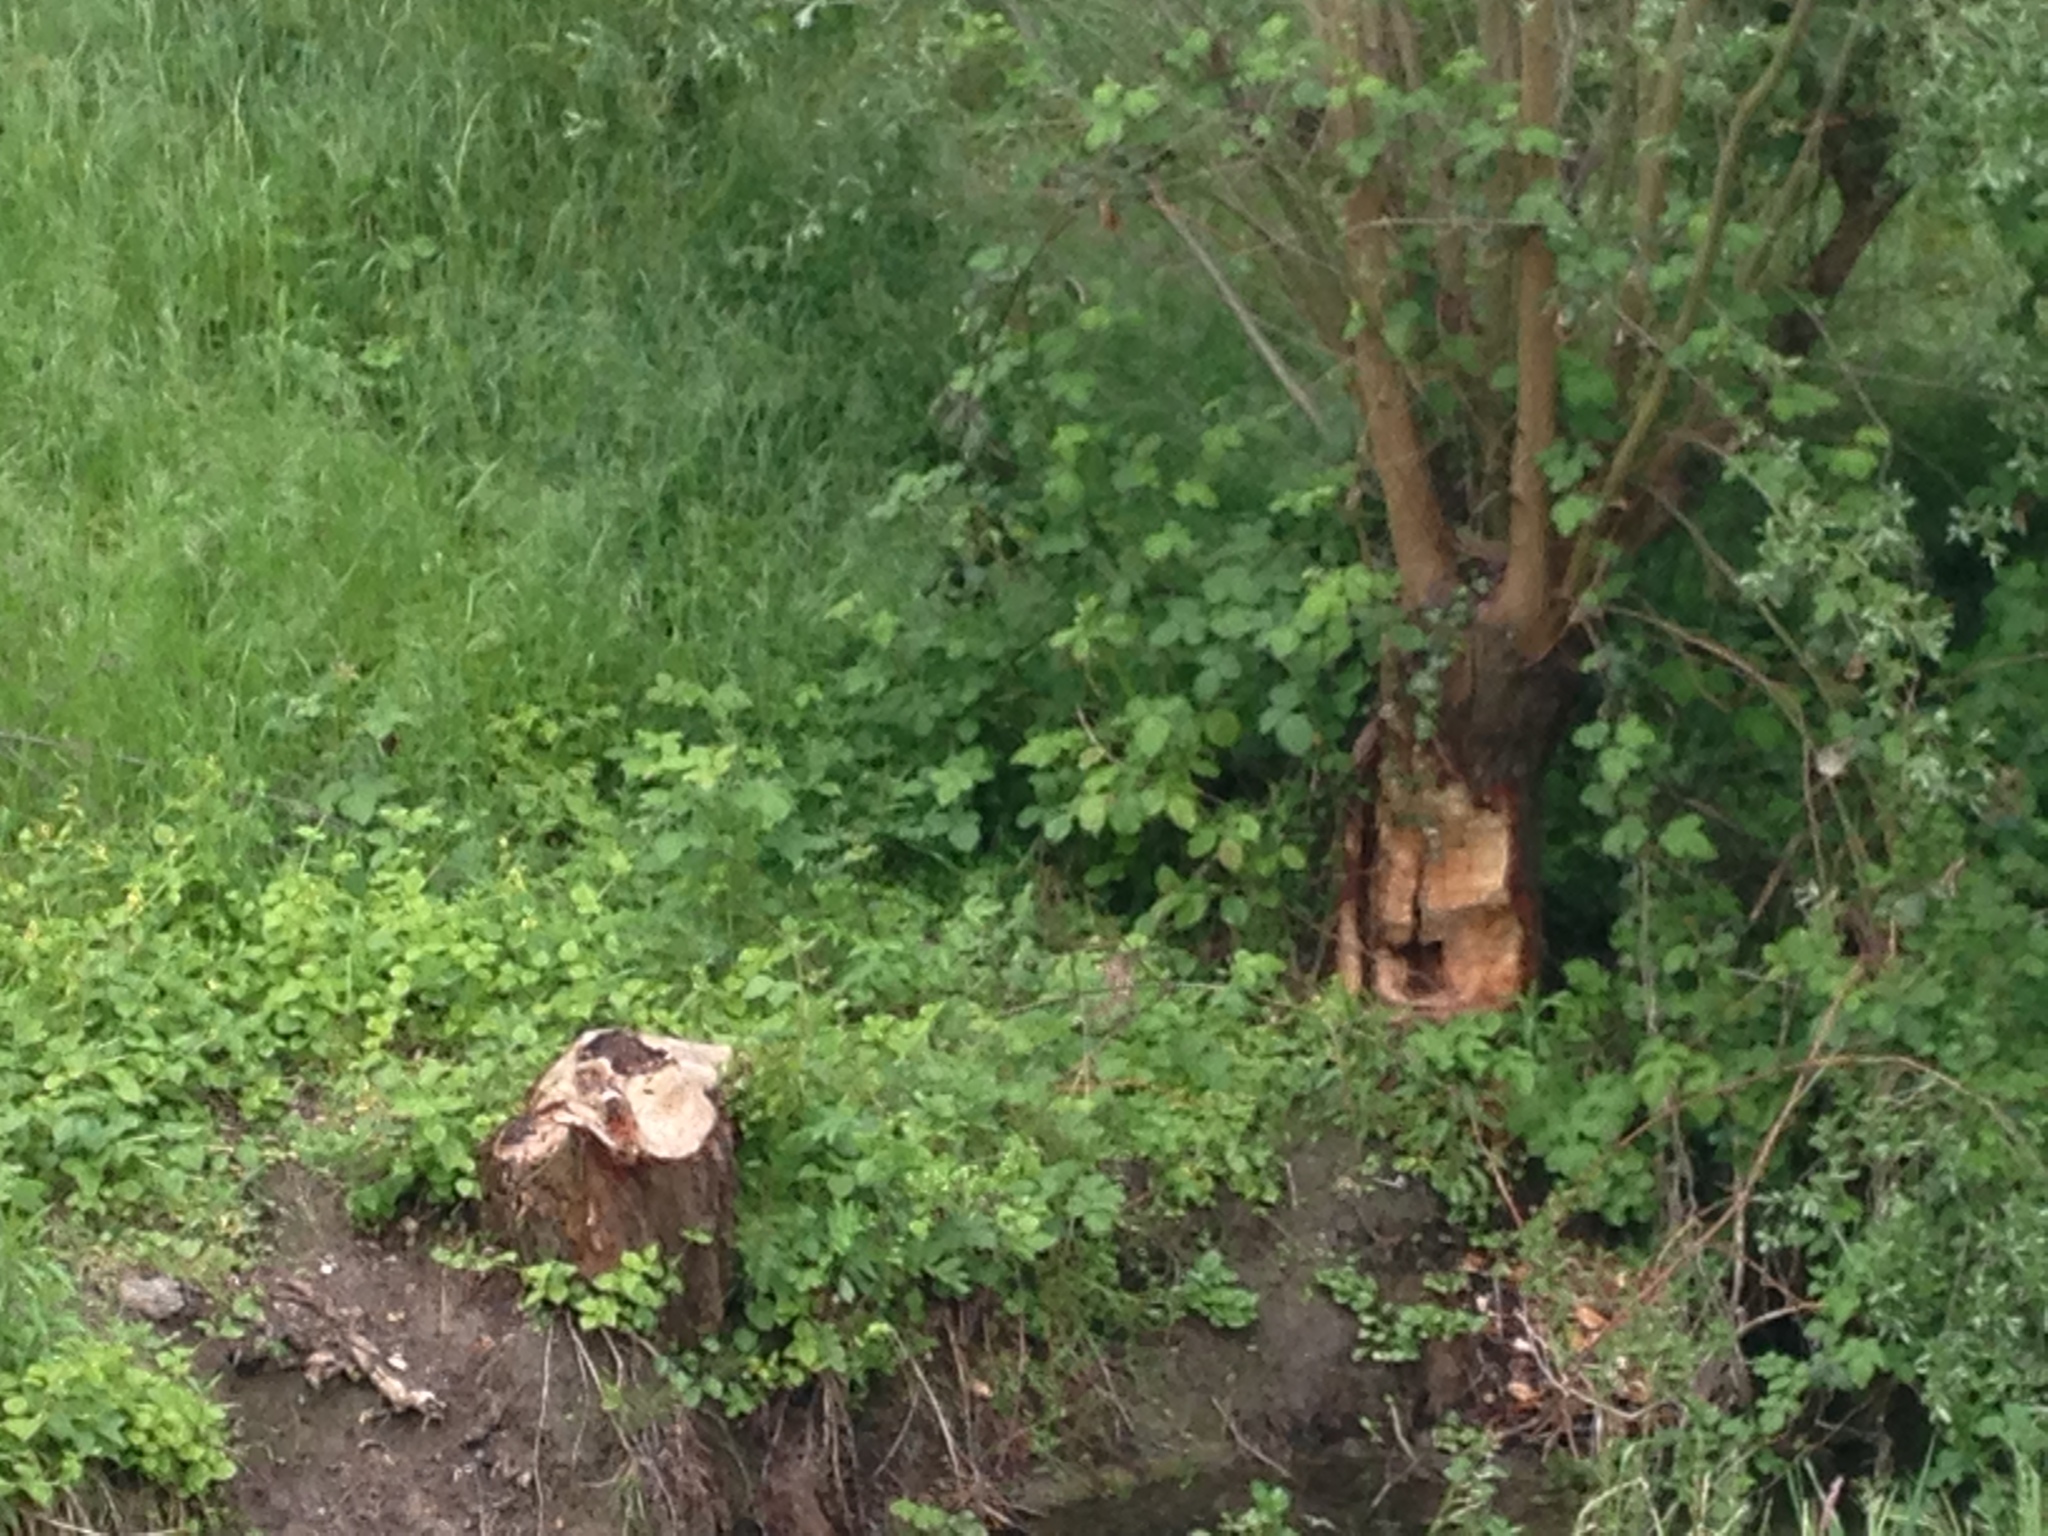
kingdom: Animalia
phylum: Chordata
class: Mammalia
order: Rodentia
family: Castoridae
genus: Castor
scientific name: Castor fiber
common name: Eurasian beaver
